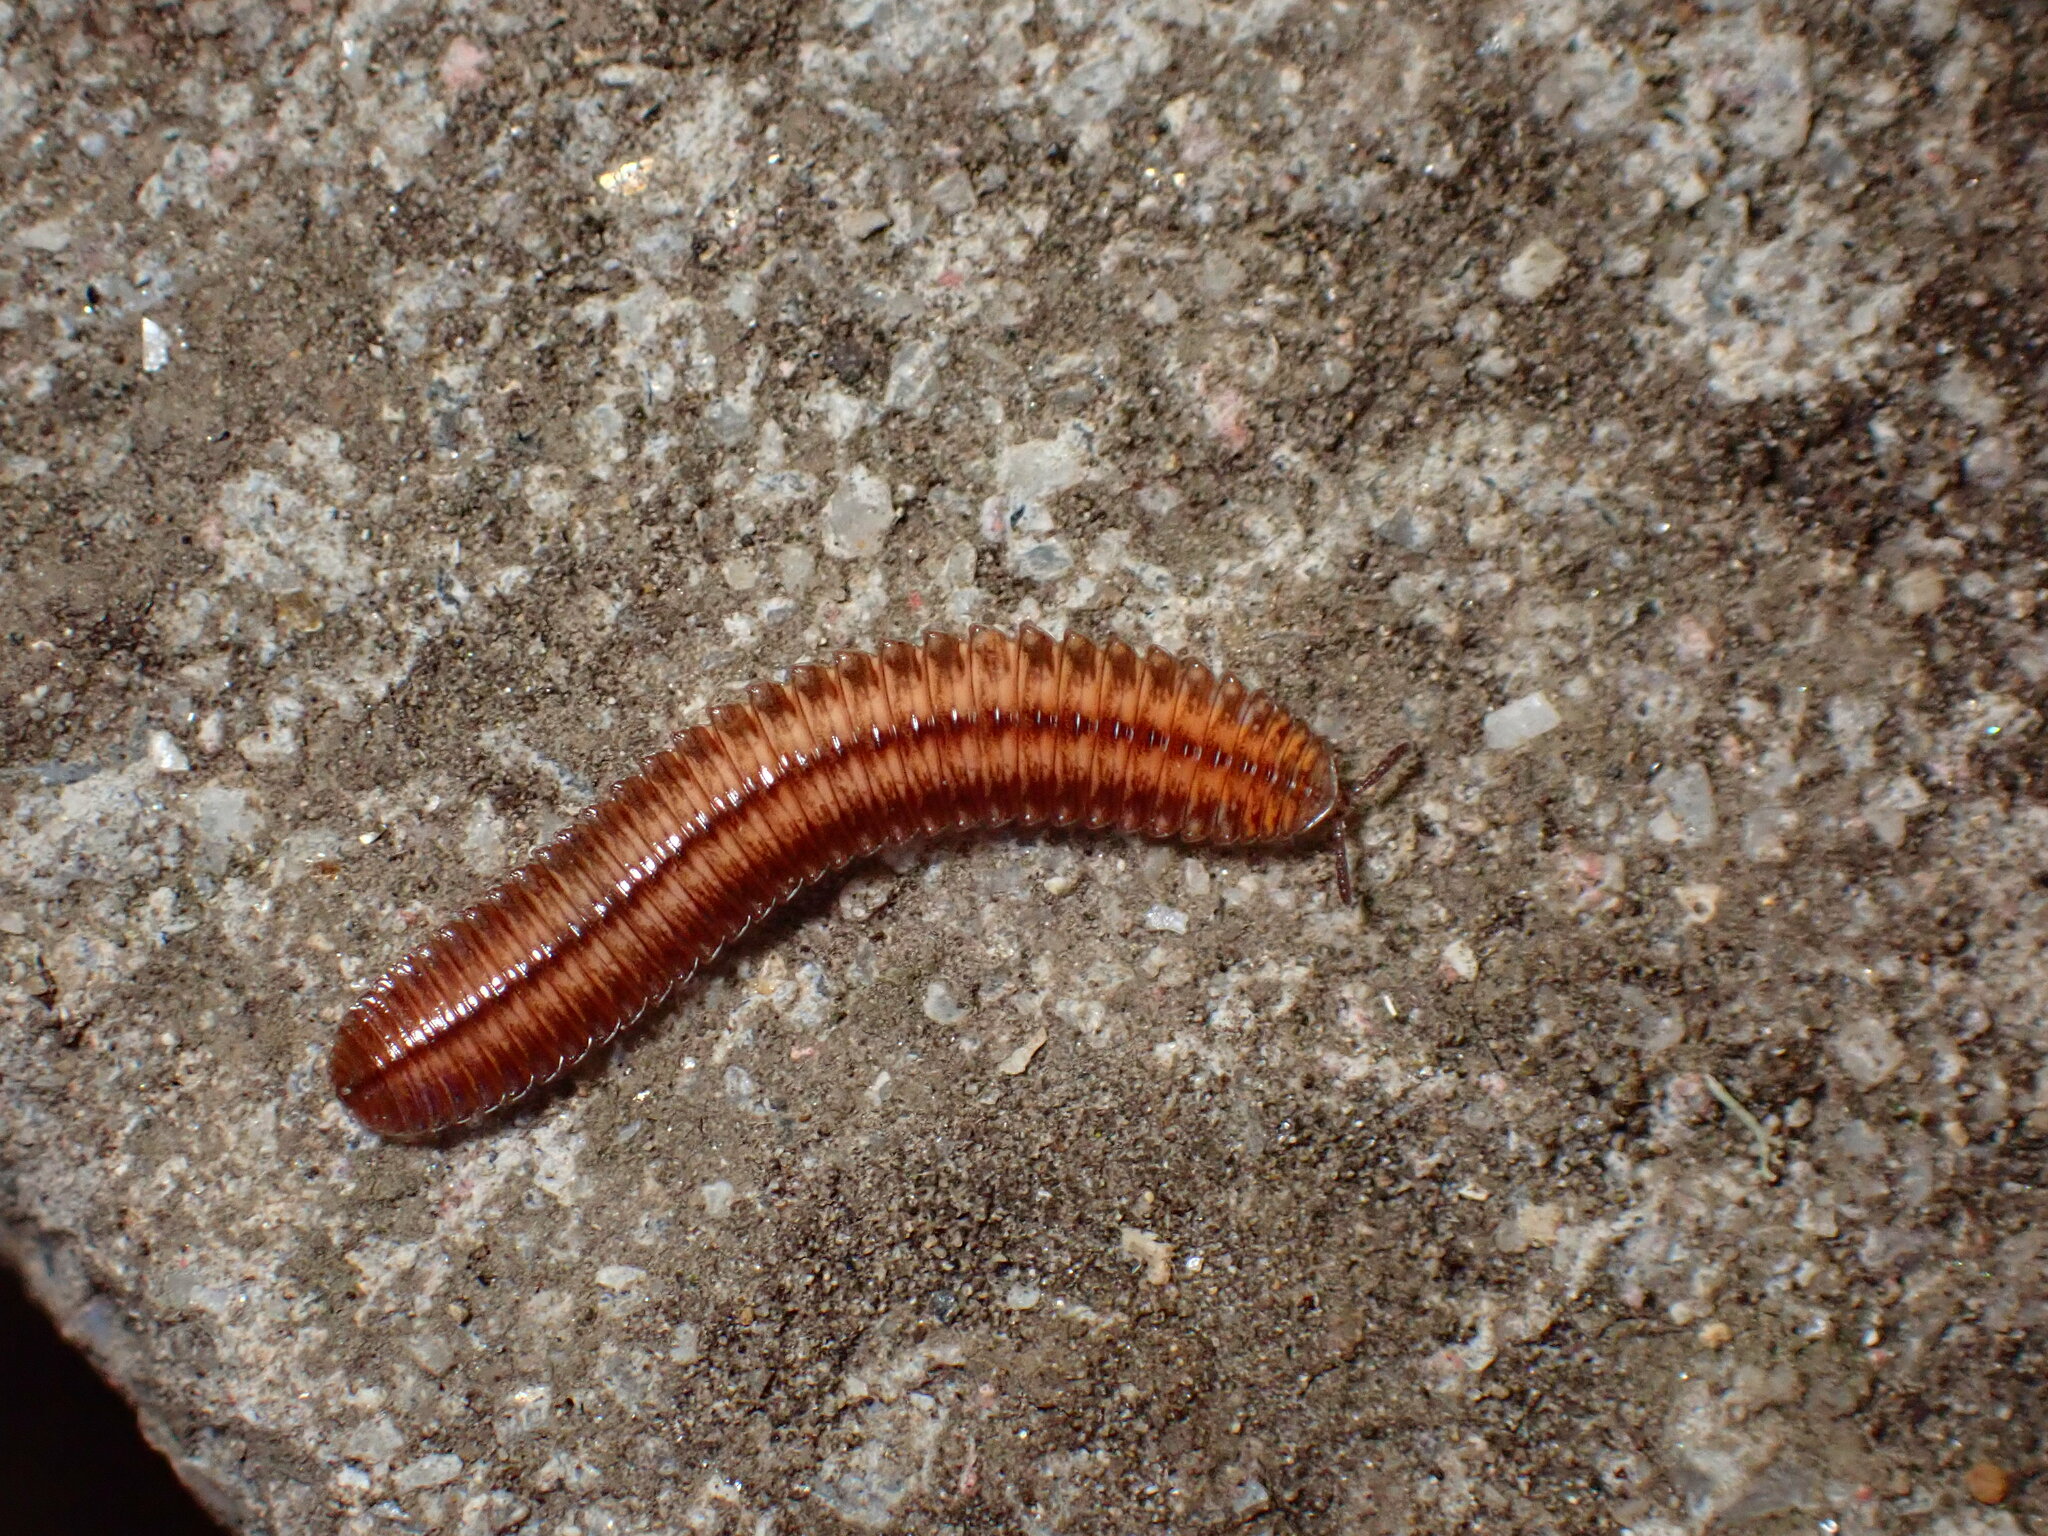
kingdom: Animalia
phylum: Arthropoda
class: Diplopoda
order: Polyzoniida
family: Hirudisomatidae
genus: Octoglena
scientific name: Octoglena bivirgatum
